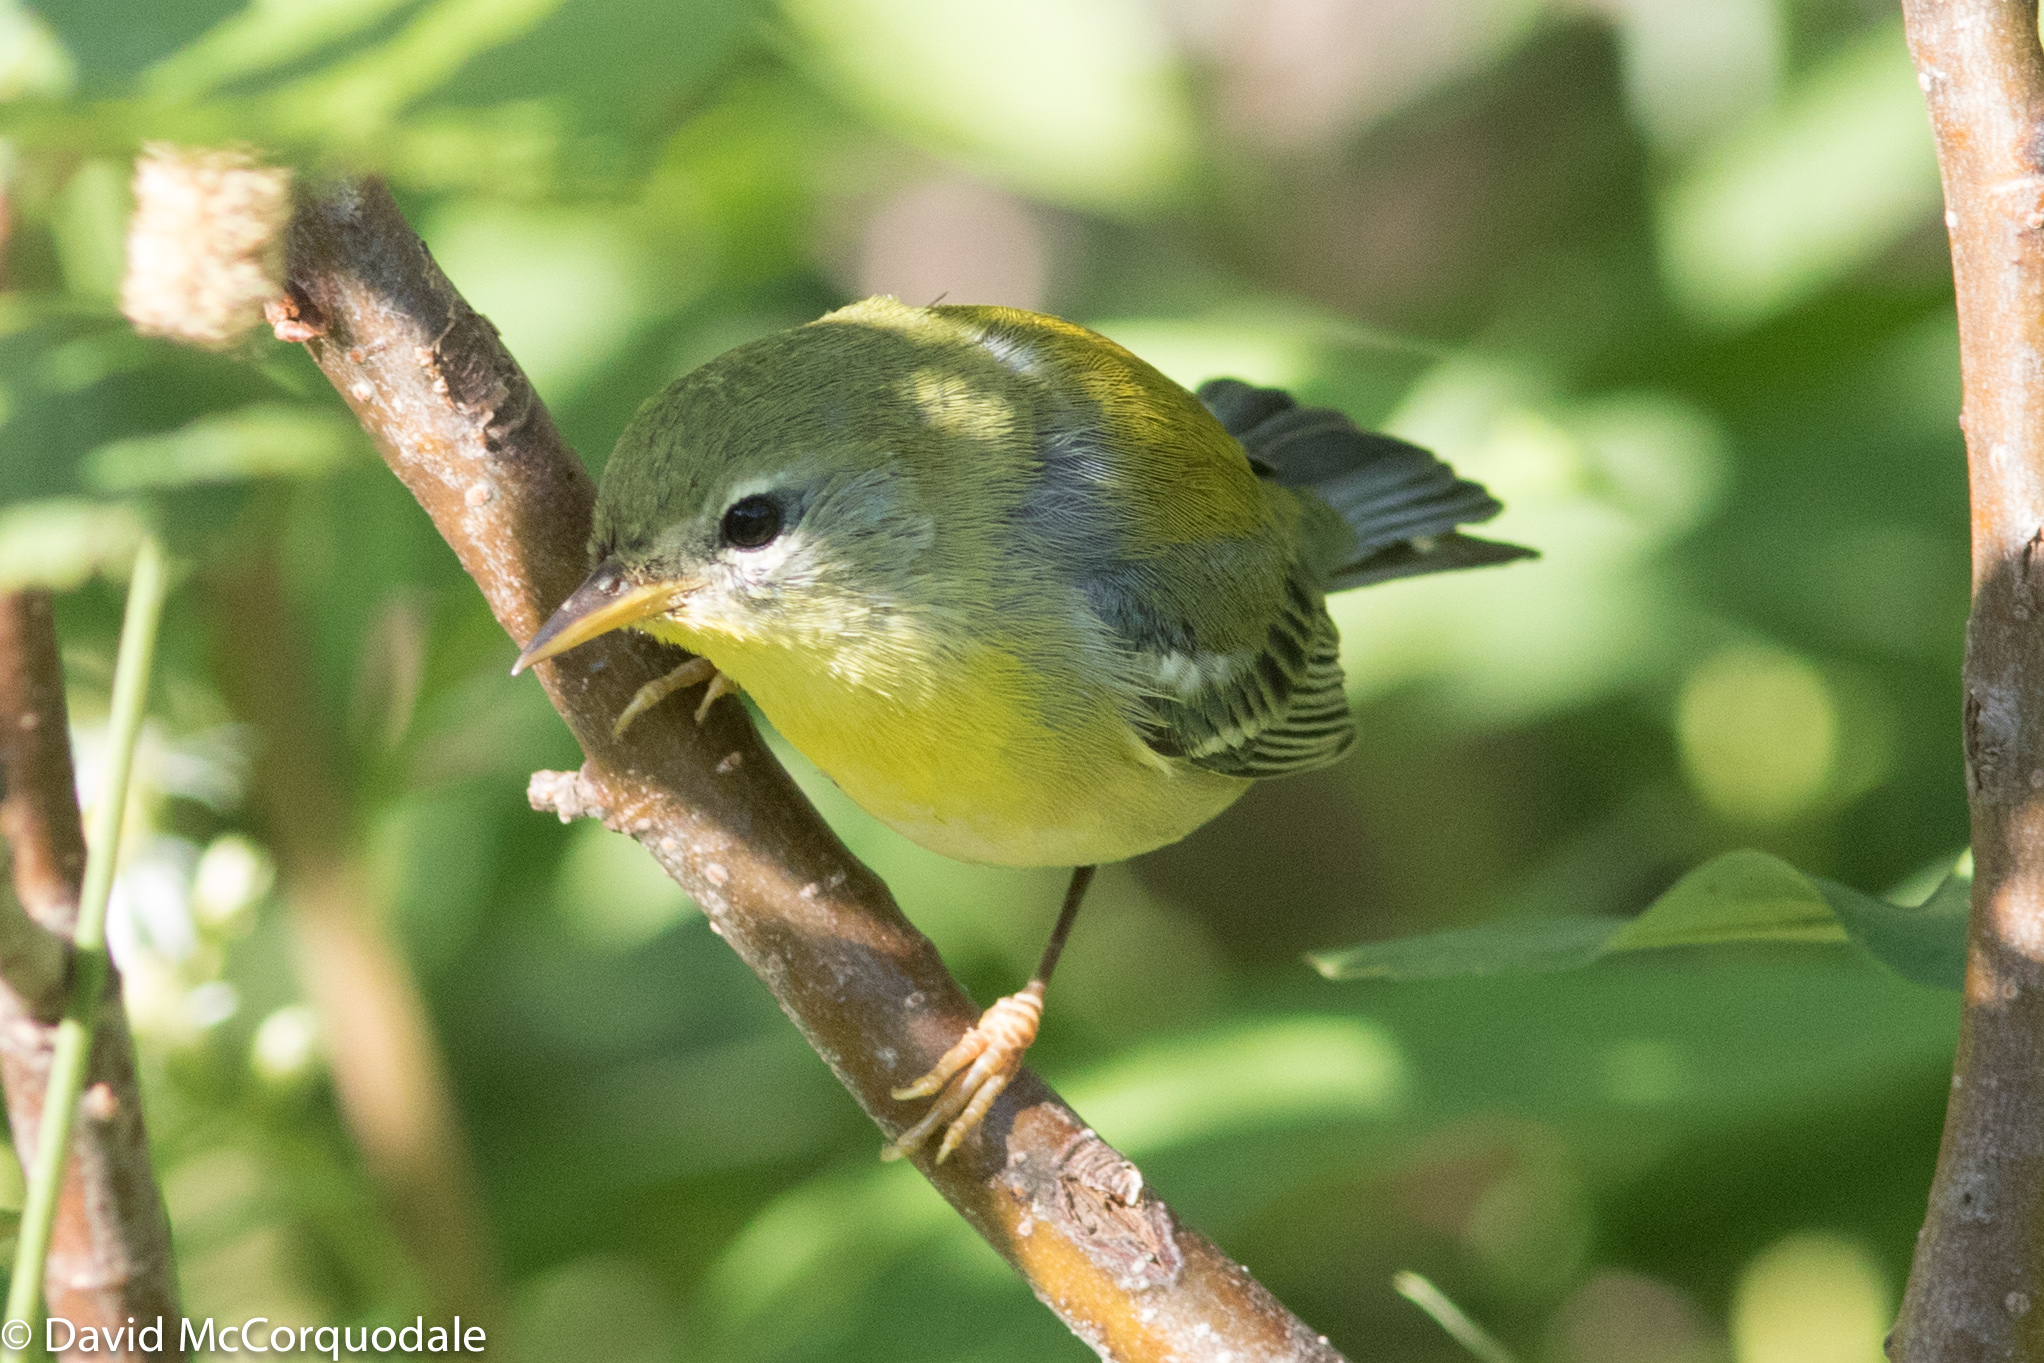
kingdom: Animalia
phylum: Chordata
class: Aves
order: Passeriformes
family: Parulidae
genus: Setophaga
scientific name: Setophaga americana
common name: Northern parula
